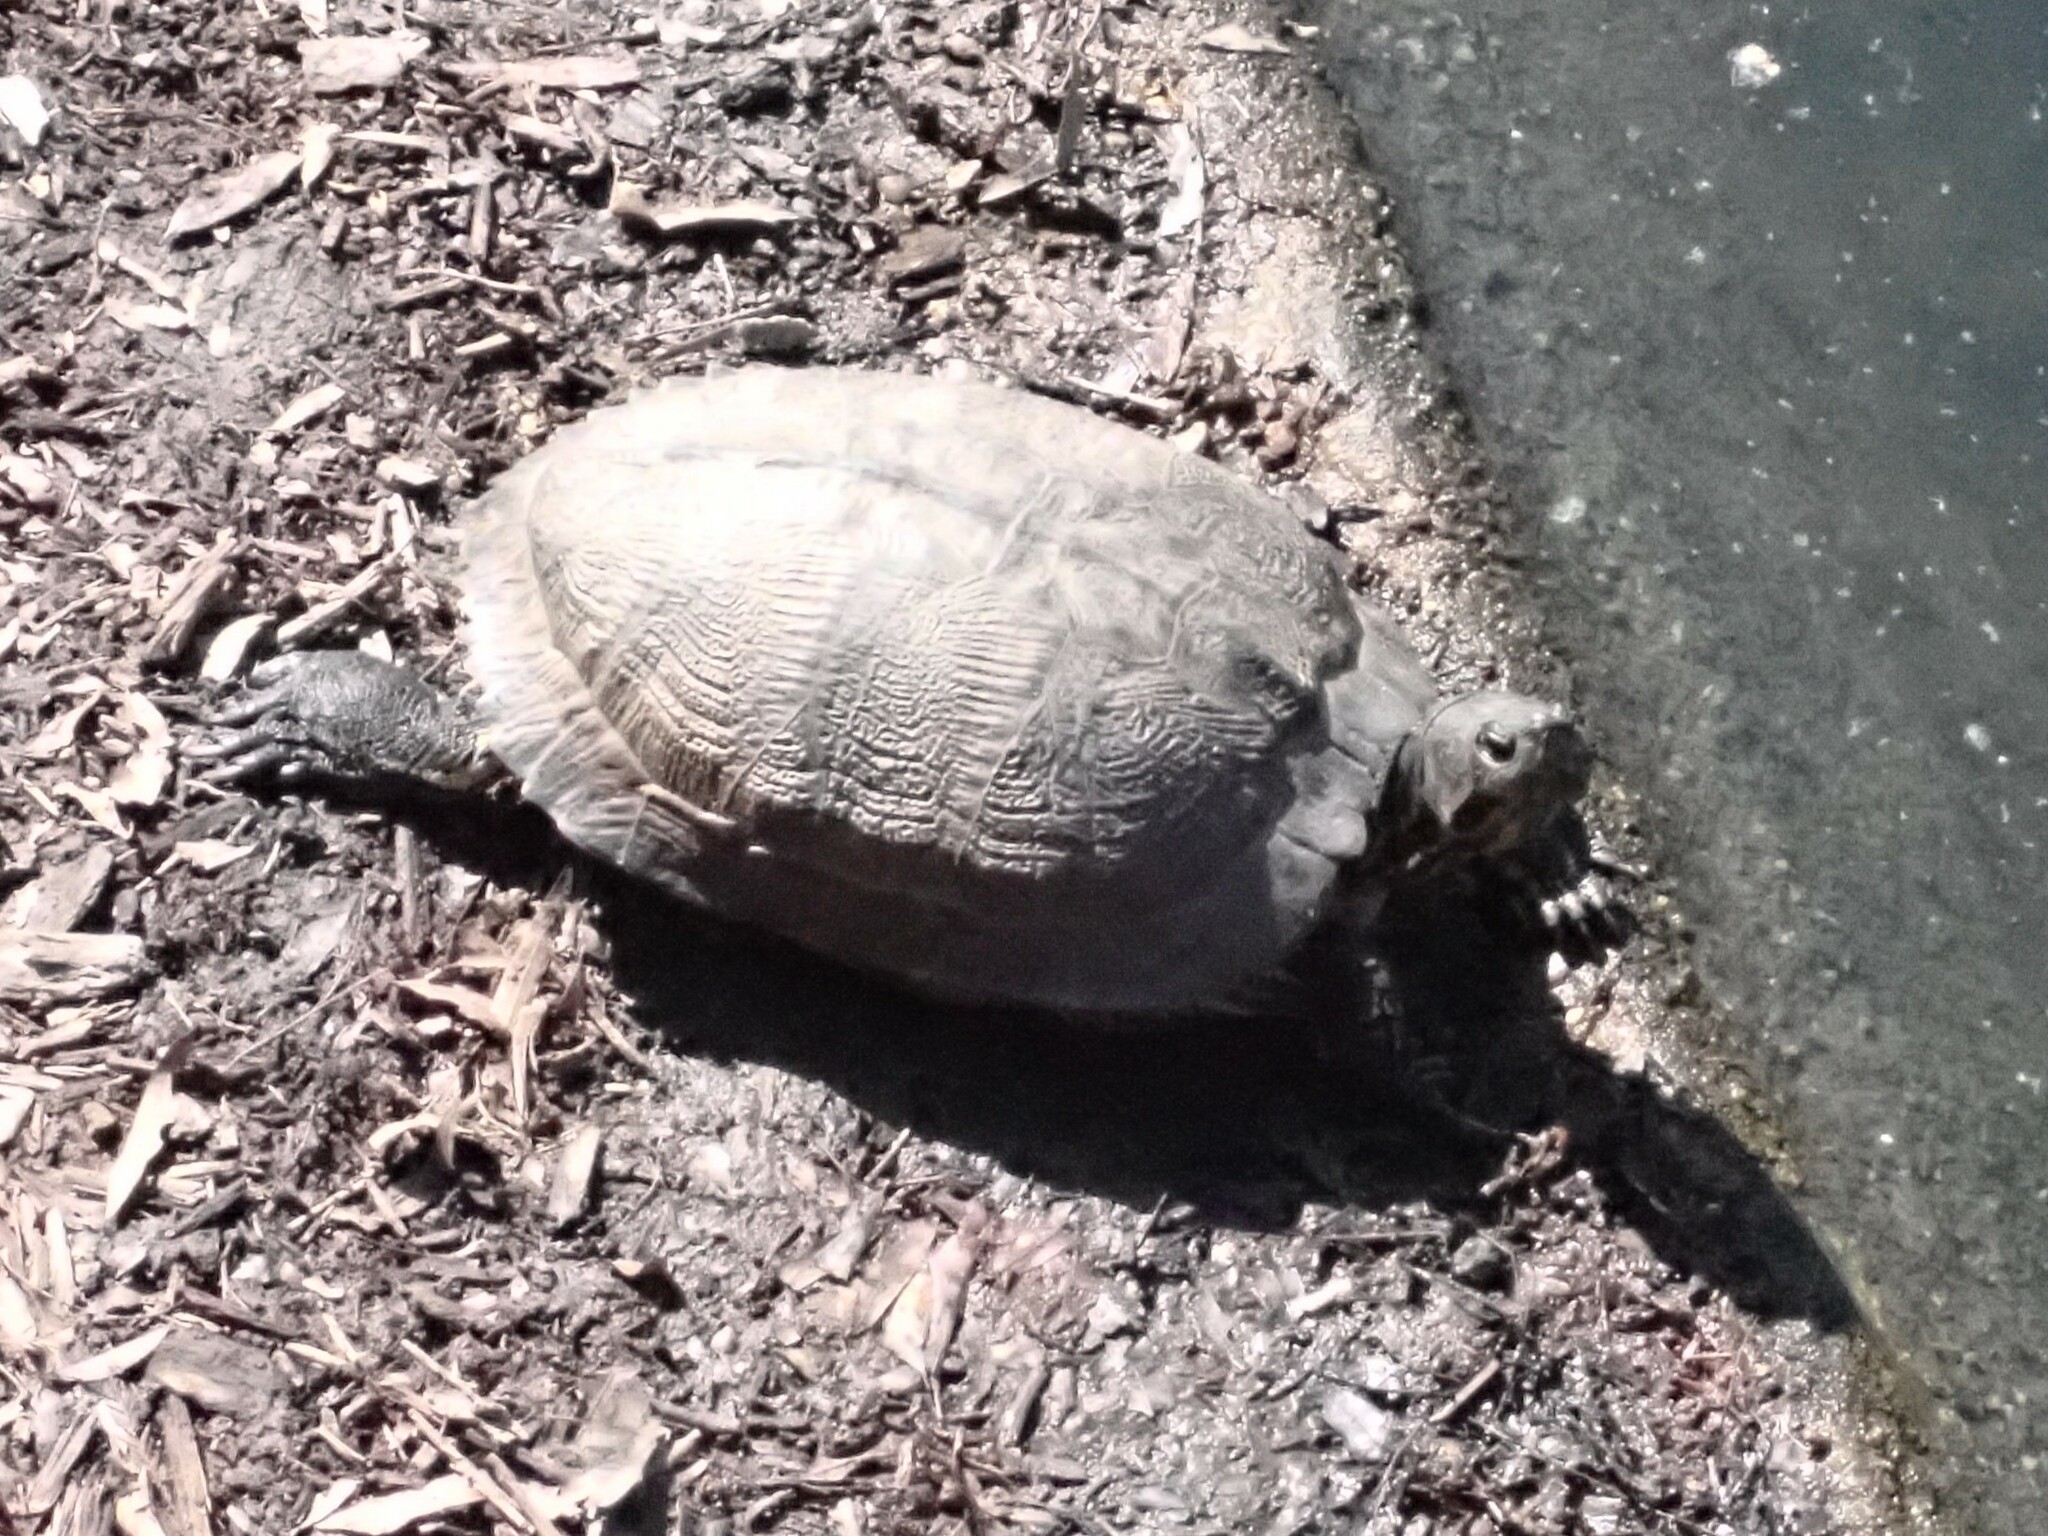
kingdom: Animalia
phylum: Chordata
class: Testudines
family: Emydidae
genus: Trachemys
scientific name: Trachemys scripta
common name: Slider
